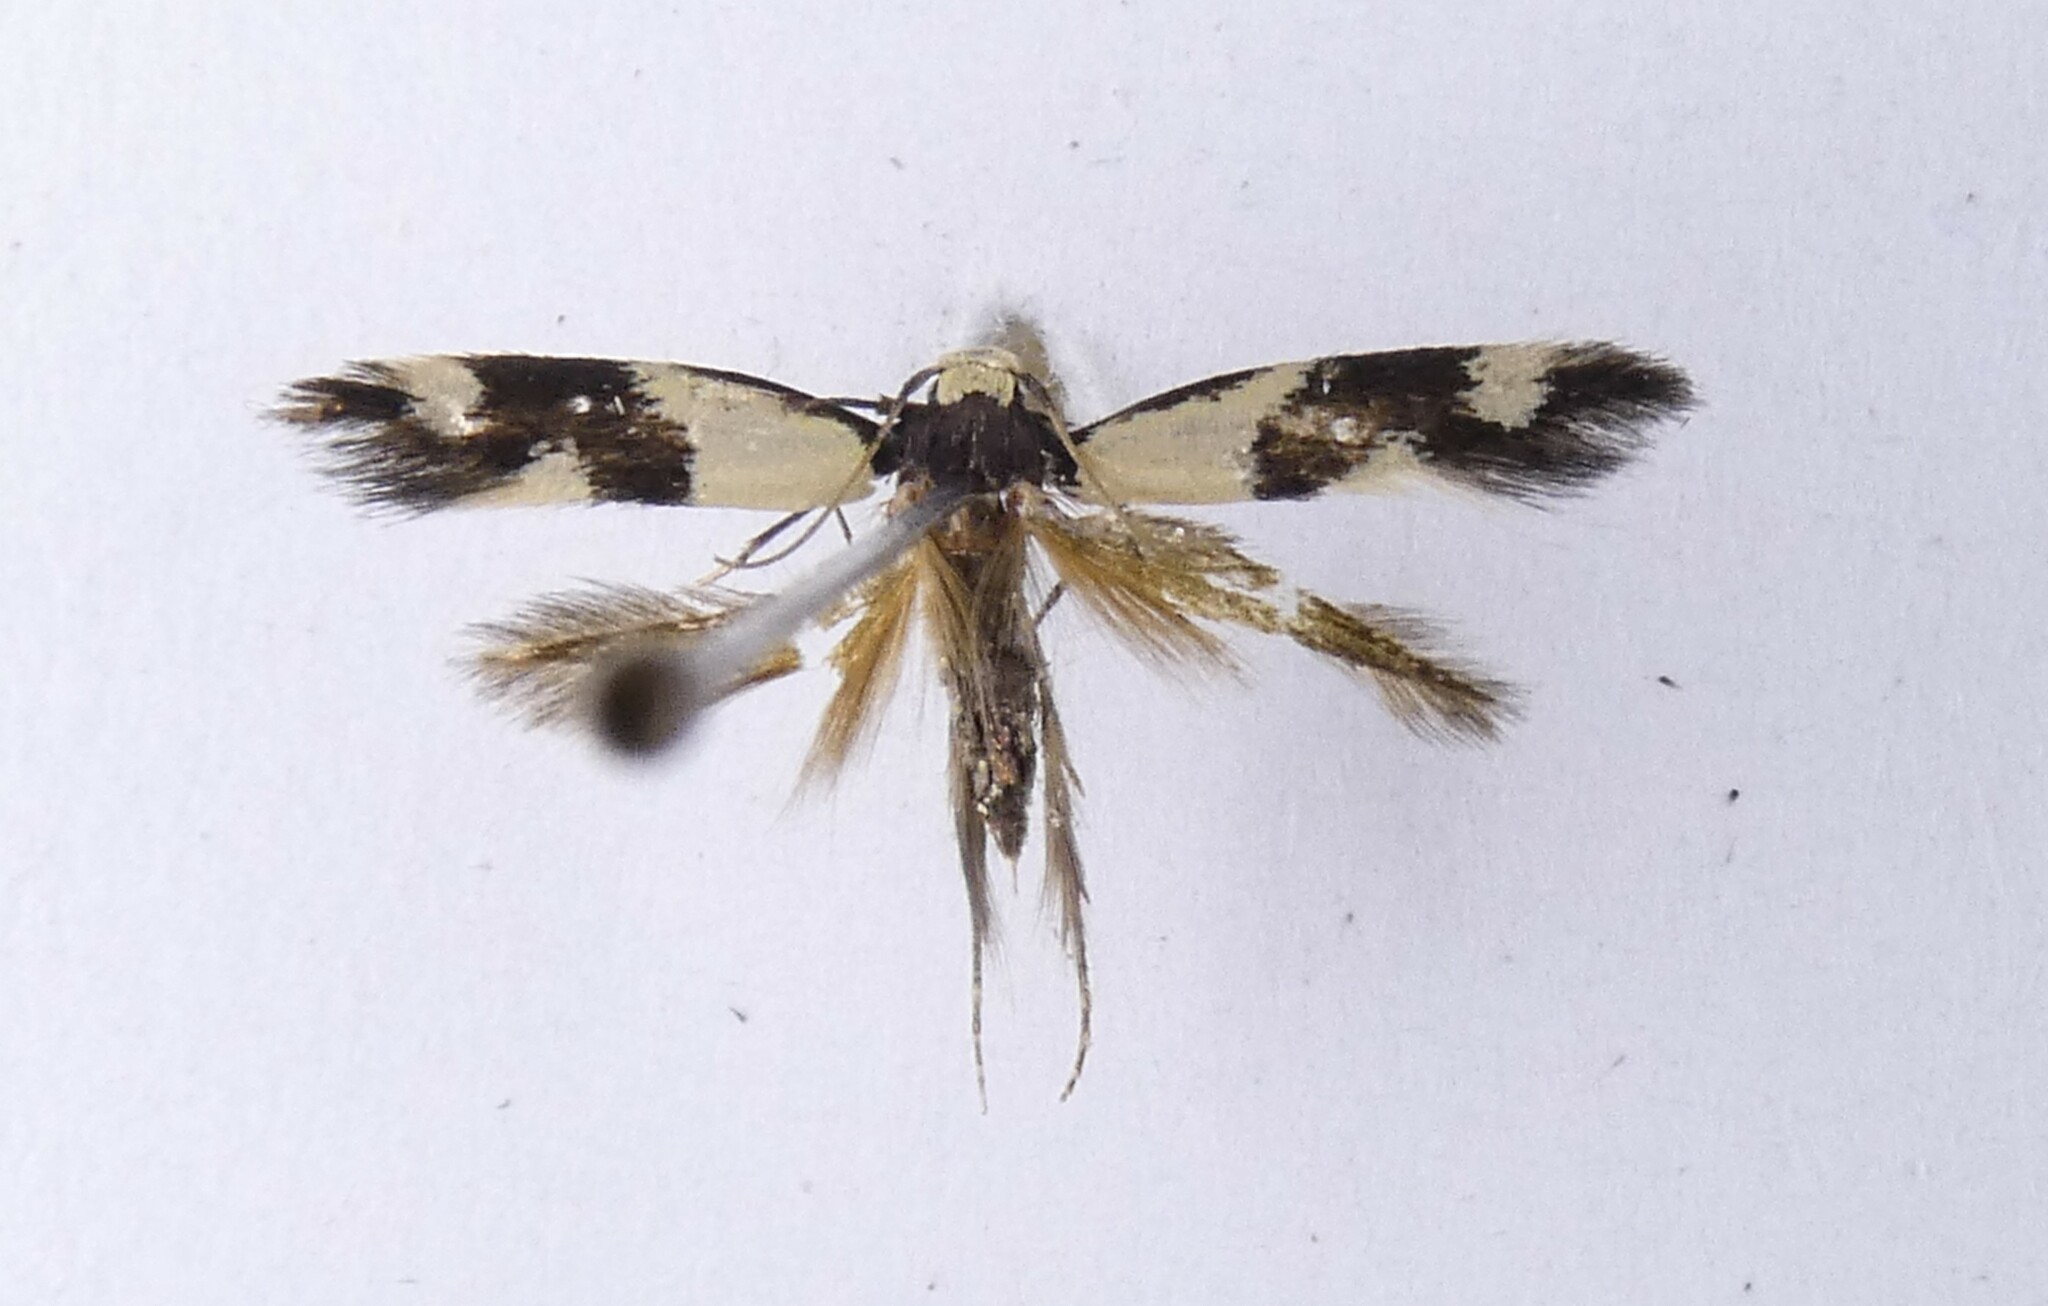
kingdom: Animalia
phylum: Arthropoda
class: Insecta
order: Lepidoptera
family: Tineidae
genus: Opogona
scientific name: Opogona comptella
